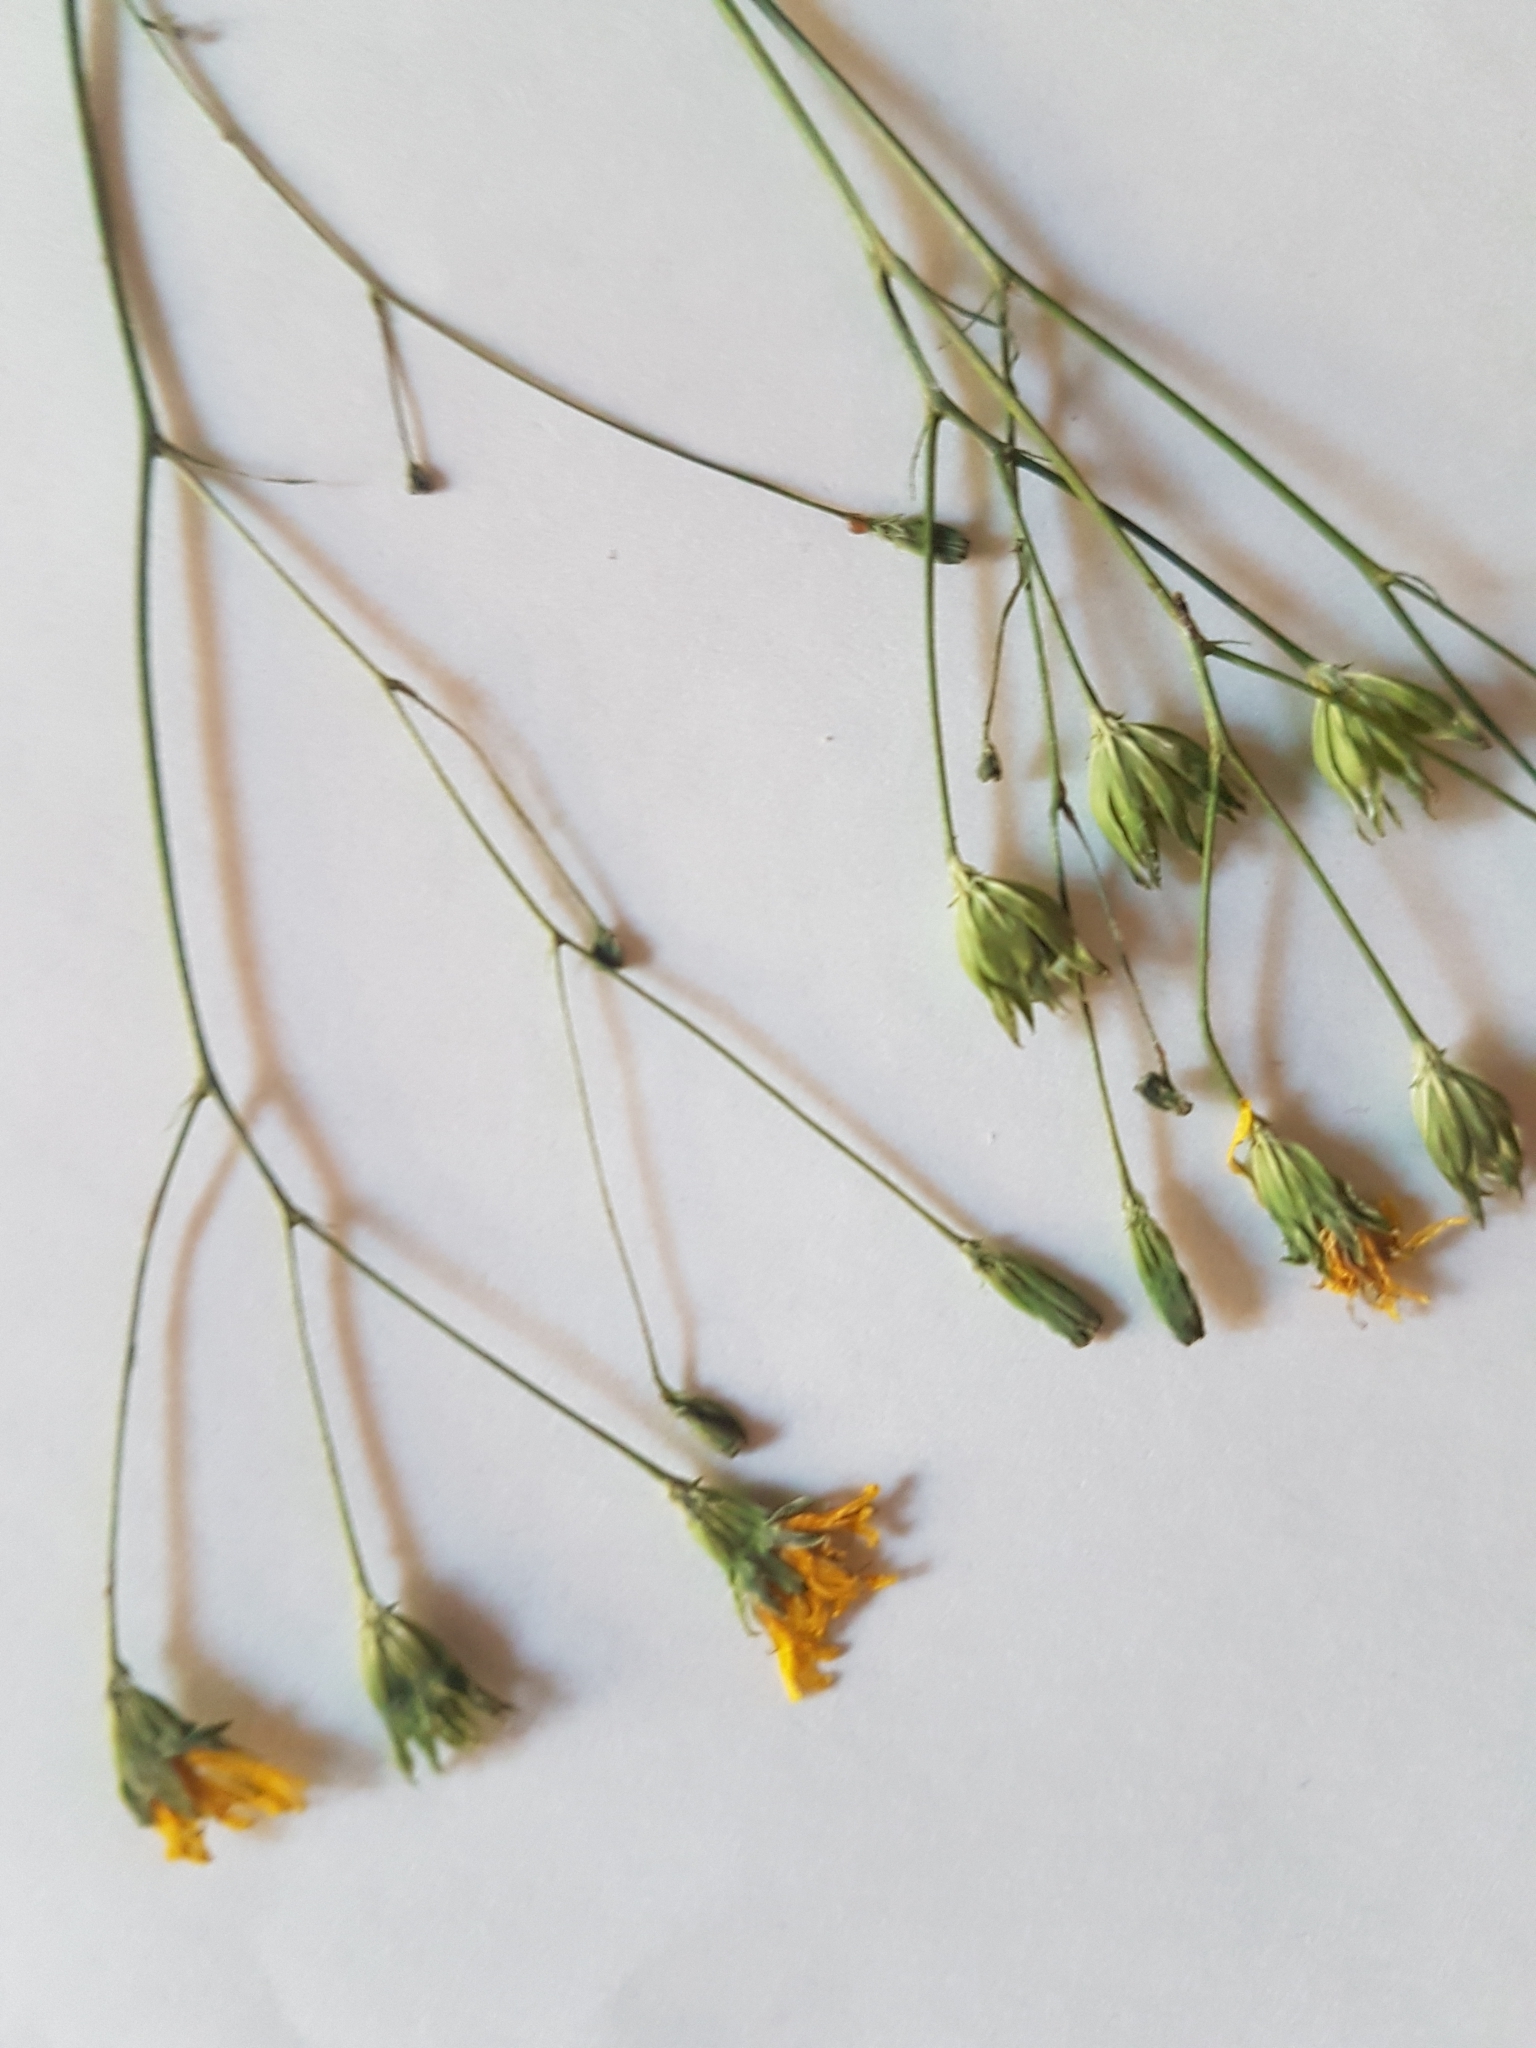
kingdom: Plantae
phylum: Tracheophyta
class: Magnoliopsida
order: Asterales
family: Asteraceae
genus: Lapsana
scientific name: Lapsana communis
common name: Nipplewort
